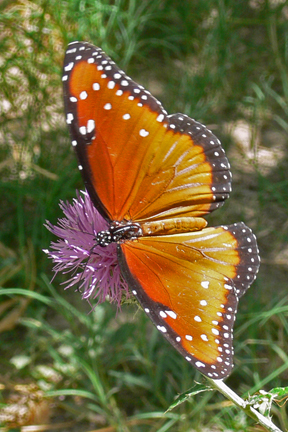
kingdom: Animalia
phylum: Arthropoda
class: Insecta
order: Lepidoptera
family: Nymphalidae
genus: Danaus
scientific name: Danaus gilippus
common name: Queen
